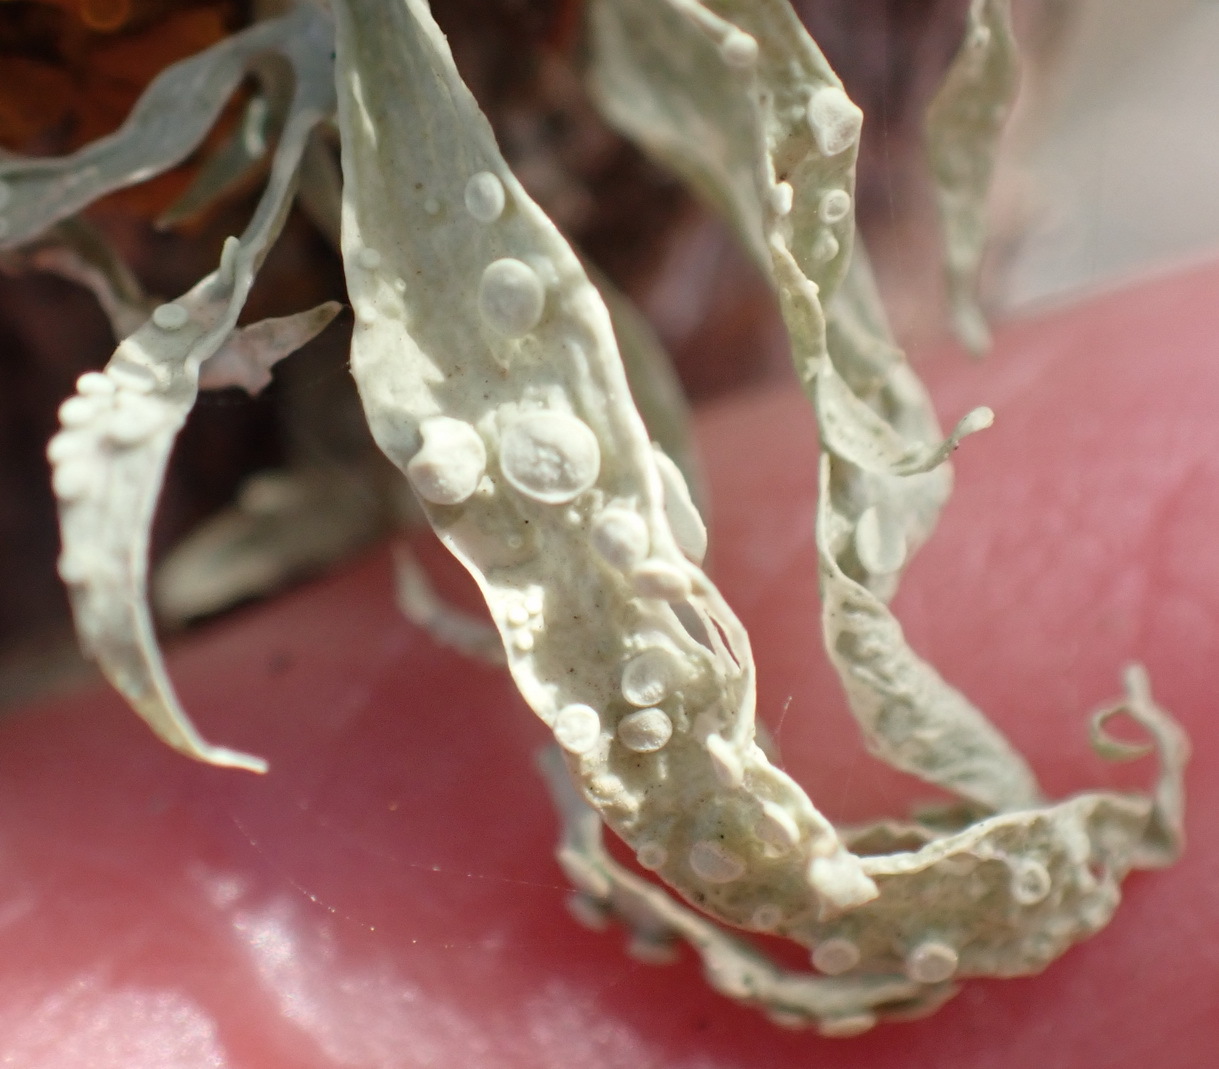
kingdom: Fungi
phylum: Ascomycota
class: Lecanoromycetes
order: Lecanorales
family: Ramalinaceae
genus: Ramalina
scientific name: Ramalina celastri
